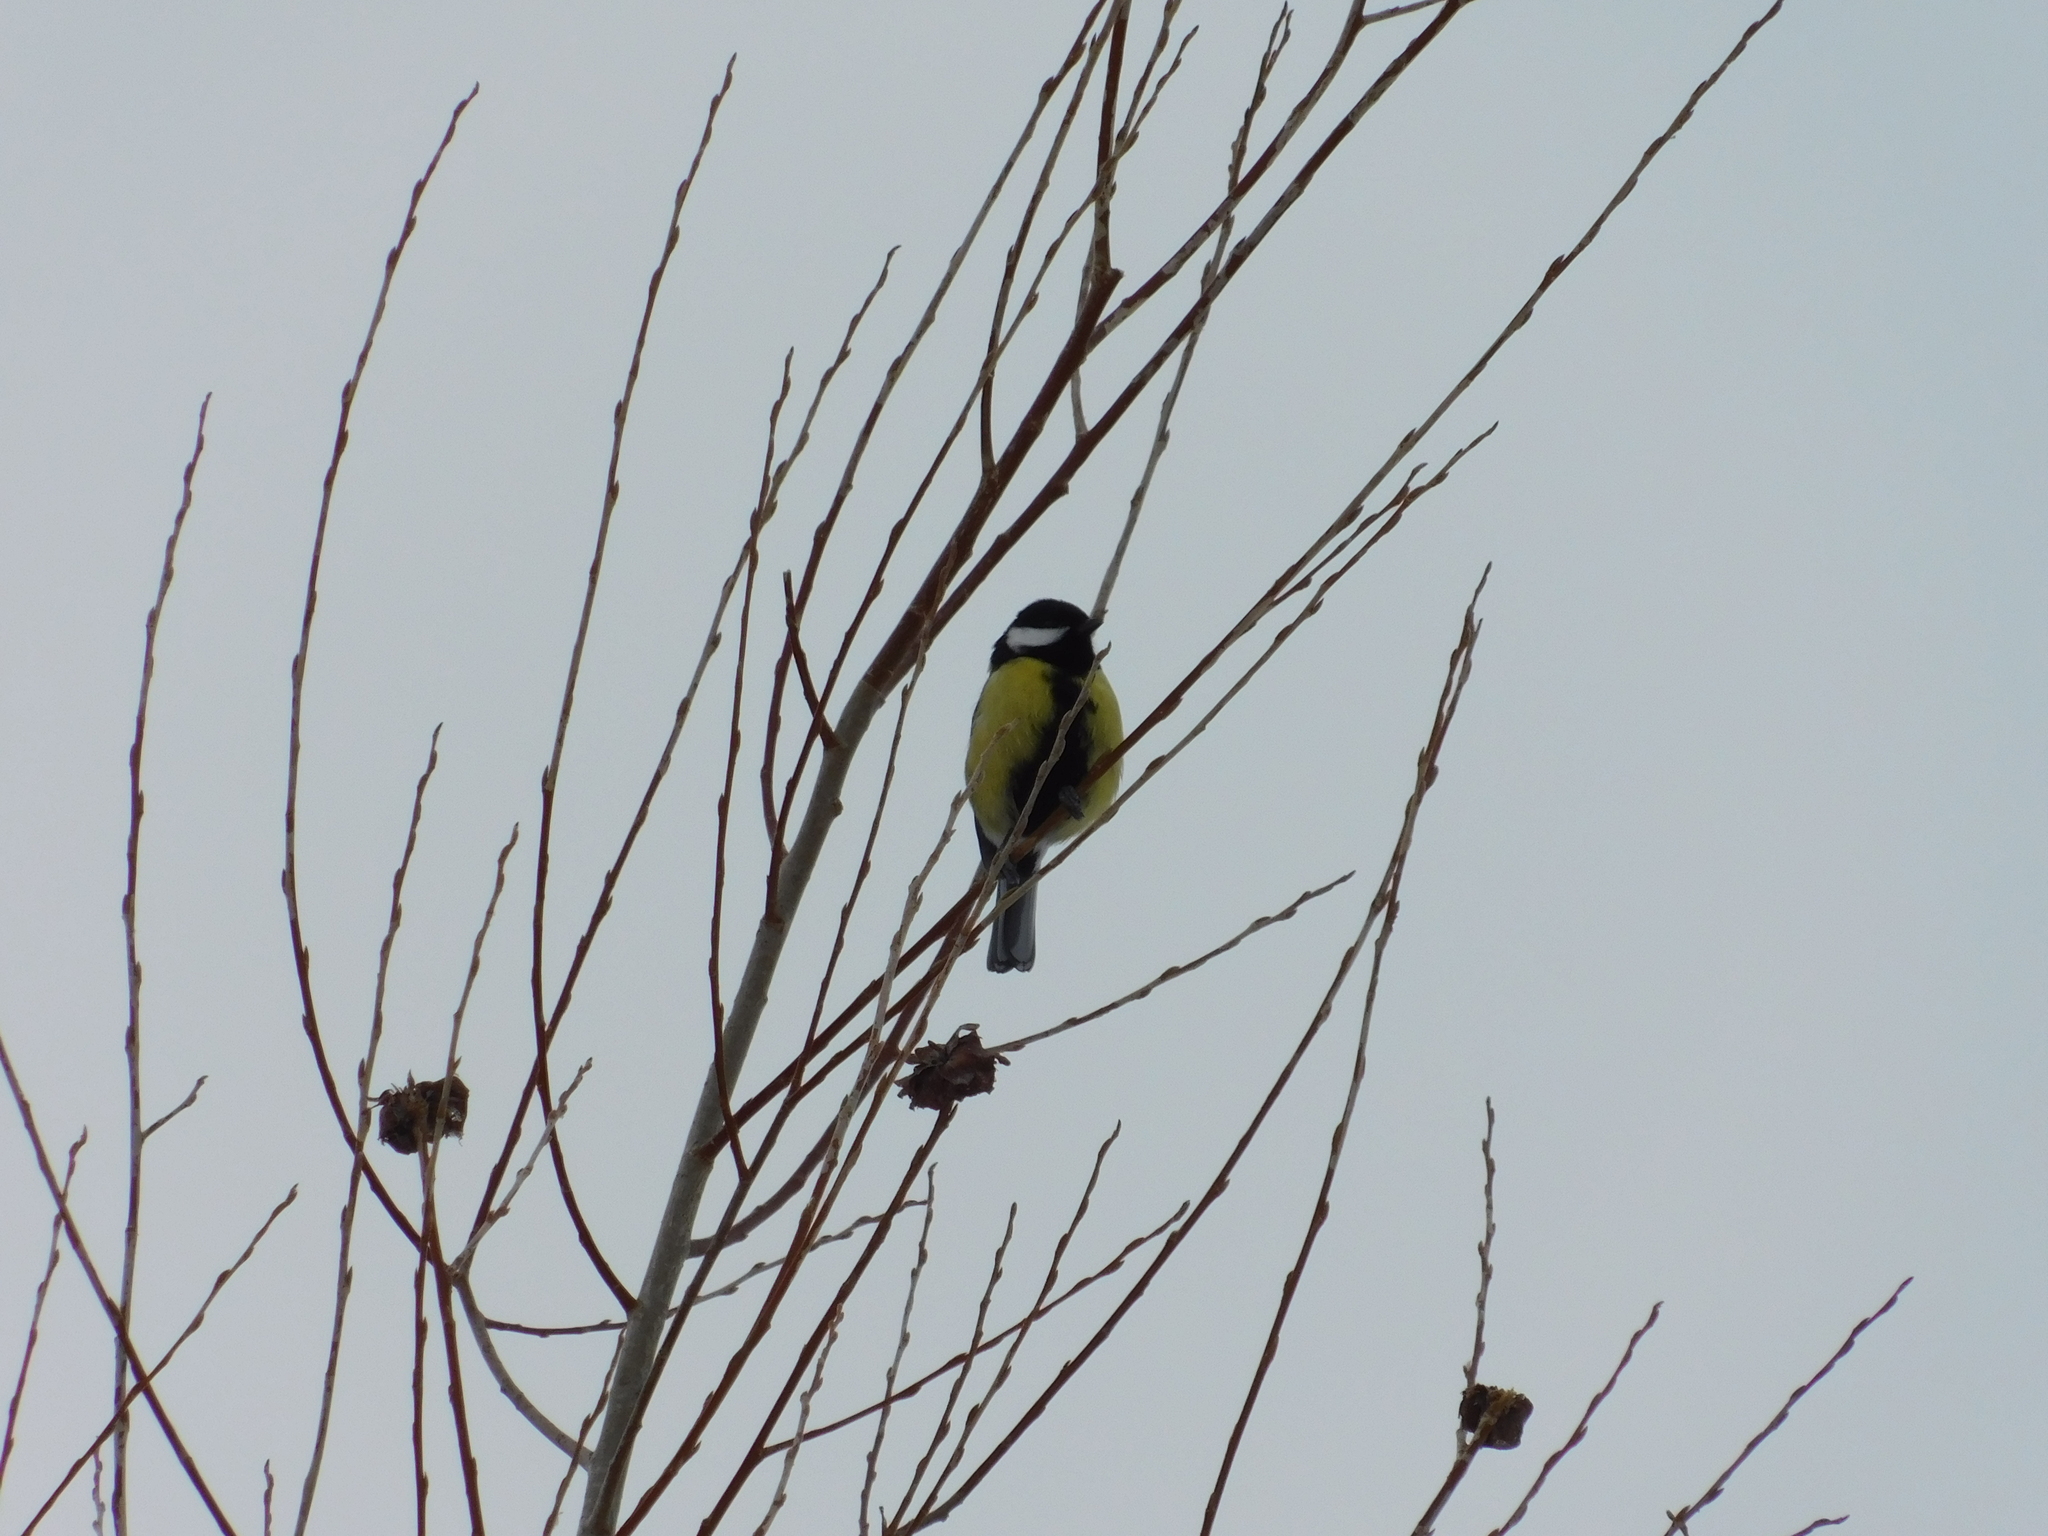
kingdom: Animalia
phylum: Chordata
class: Aves
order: Passeriformes
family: Paridae
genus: Parus
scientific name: Parus major
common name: Great tit
